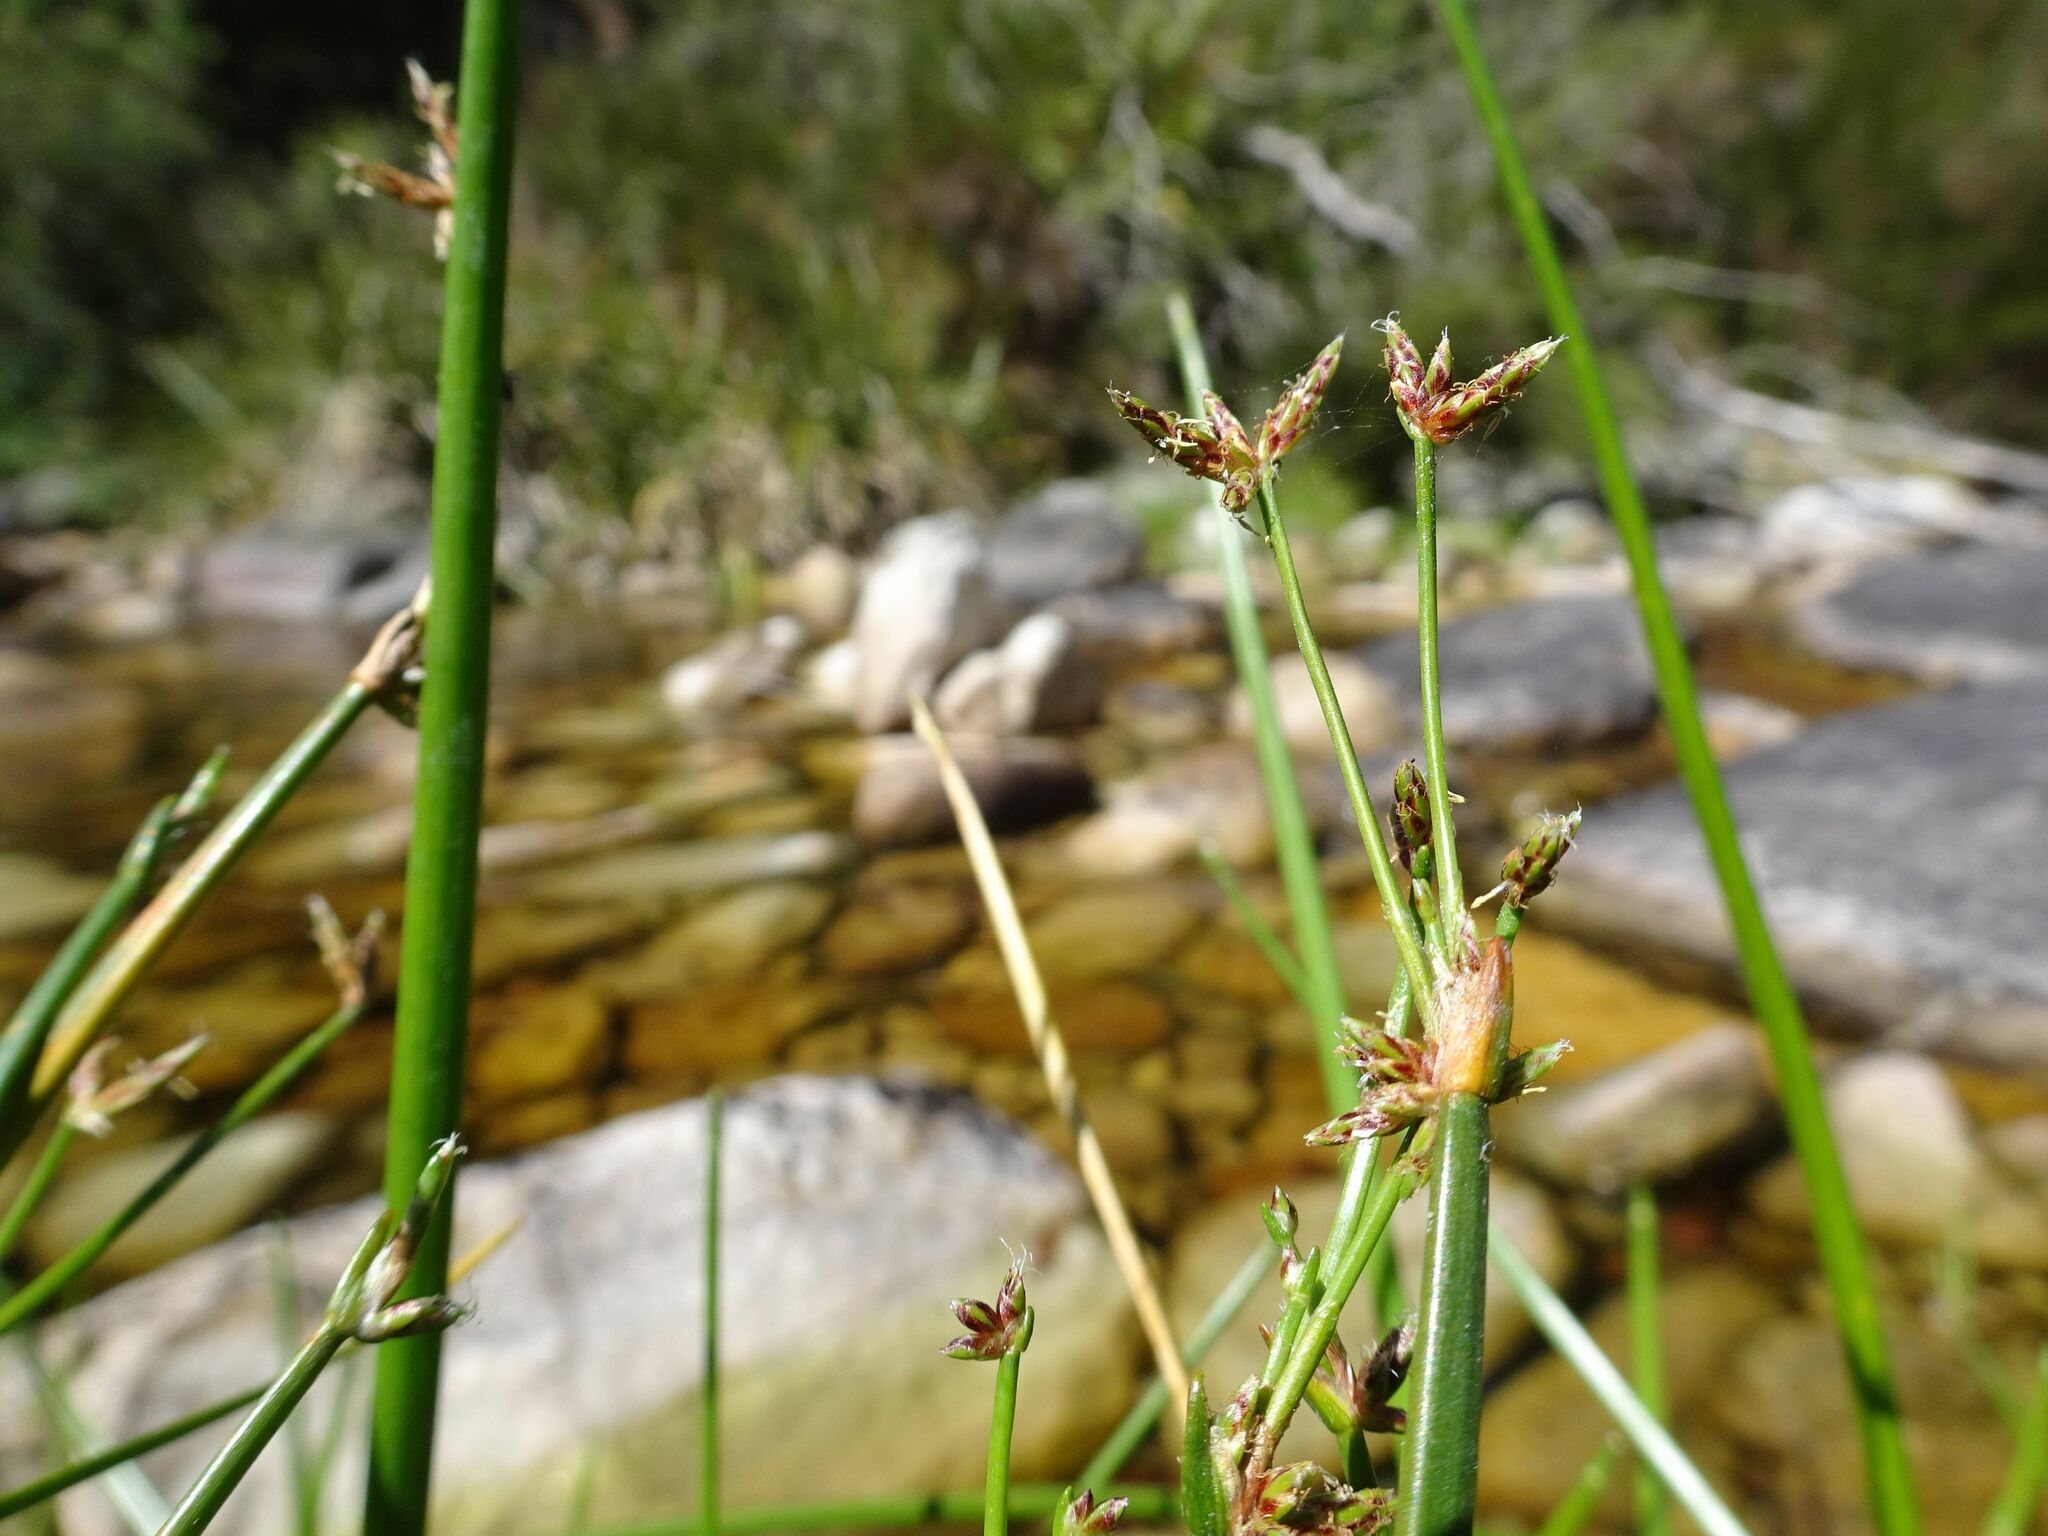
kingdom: Plantae
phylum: Tracheophyta
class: Liliopsida
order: Poales
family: Cyperaceae
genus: Isolepis
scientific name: Isolepis prolifera
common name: Proliferating bulrush
